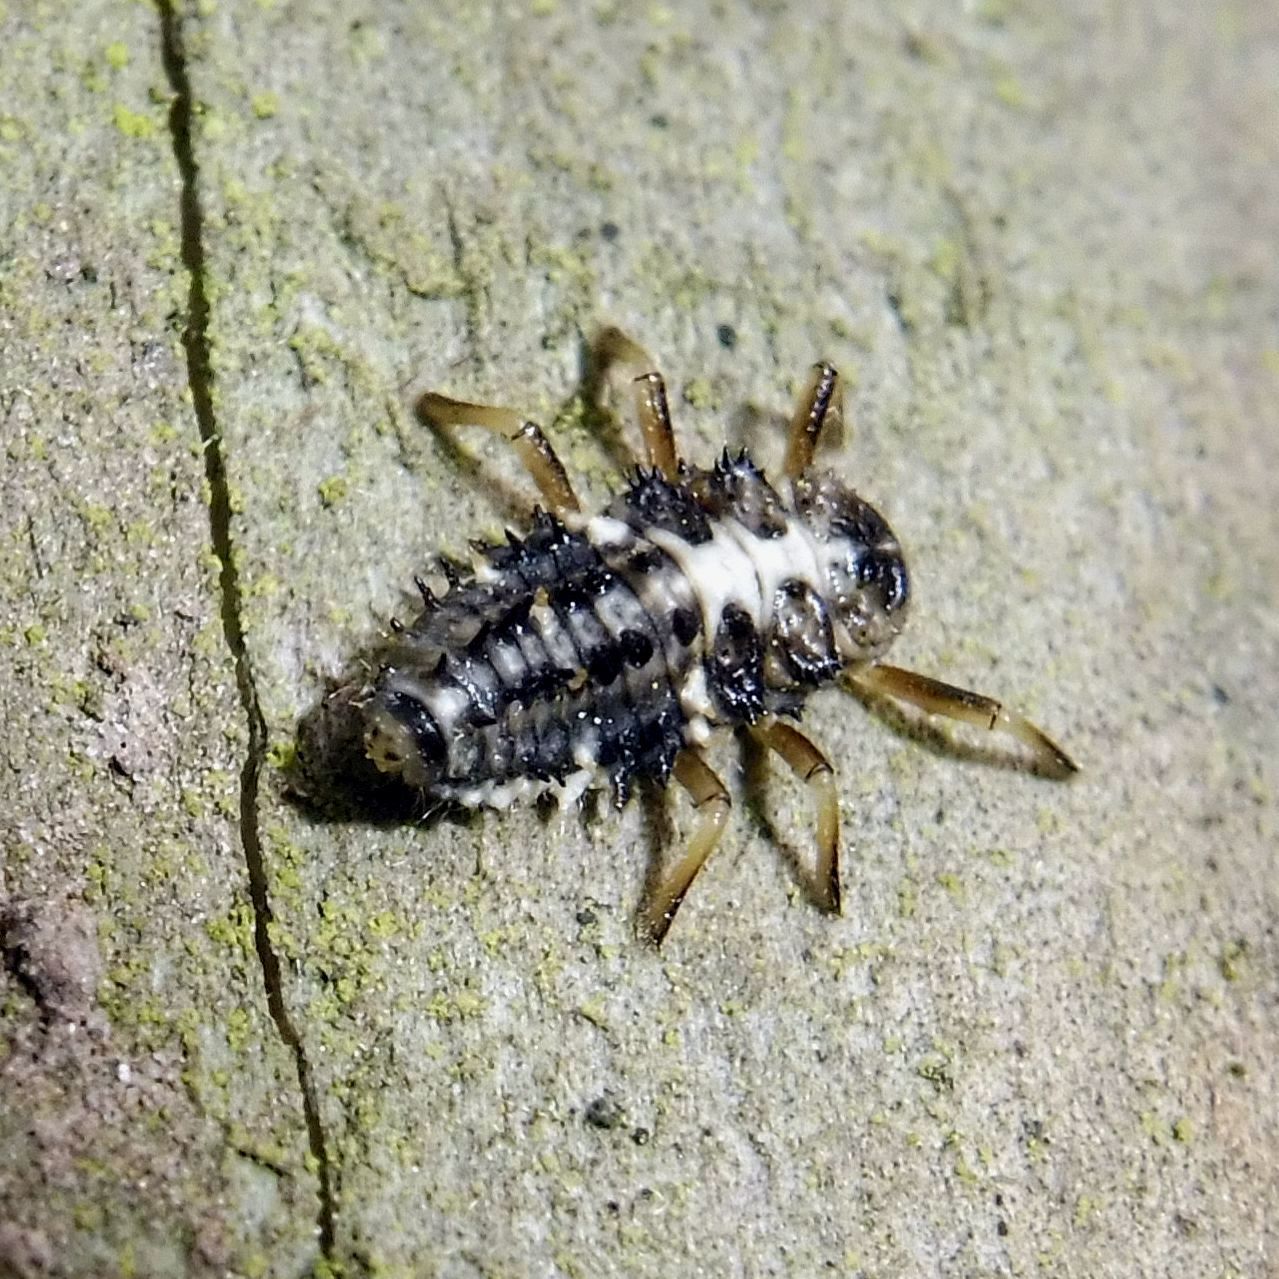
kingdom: Animalia
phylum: Arthropoda
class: Insecta
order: Coleoptera
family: Coccinellidae
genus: Calvia
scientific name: Calvia quatuordecimguttata
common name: Cream-spot ladybird
